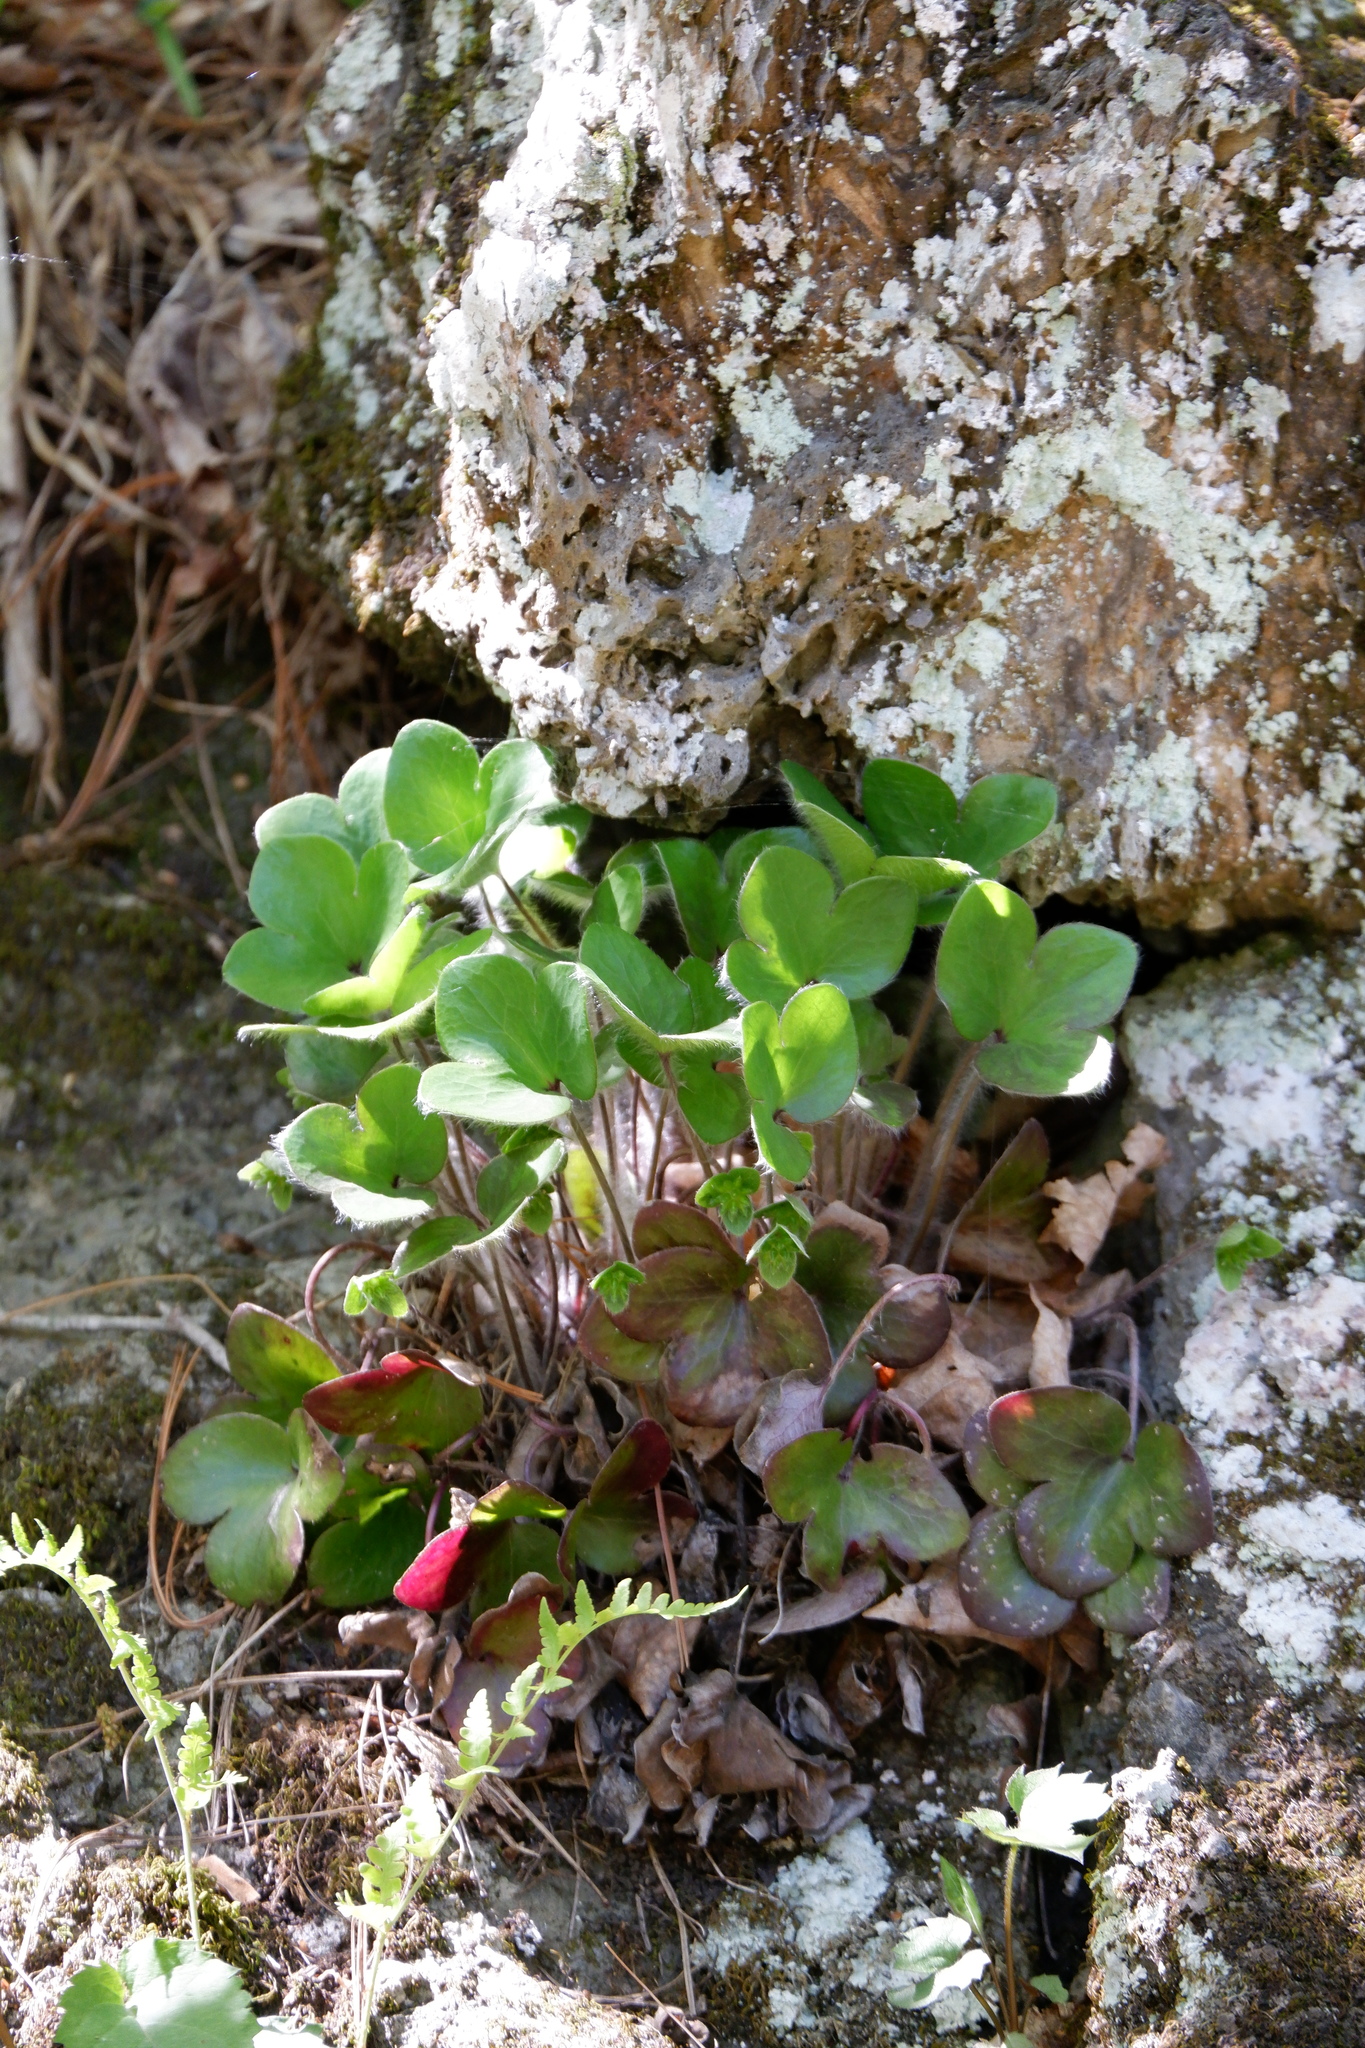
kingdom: Plantae
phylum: Tracheophyta
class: Magnoliopsida
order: Ranunculales
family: Ranunculaceae
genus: Hepatica
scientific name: Hepatica americana
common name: American hepatica
